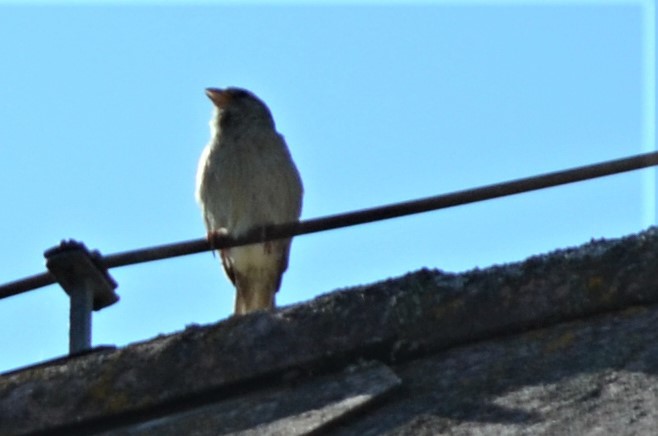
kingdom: Animalia
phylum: Chordata
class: Aves
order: Passeriformes
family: Passeridae
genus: Passer
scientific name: Passer domesticus
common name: House sparrow
